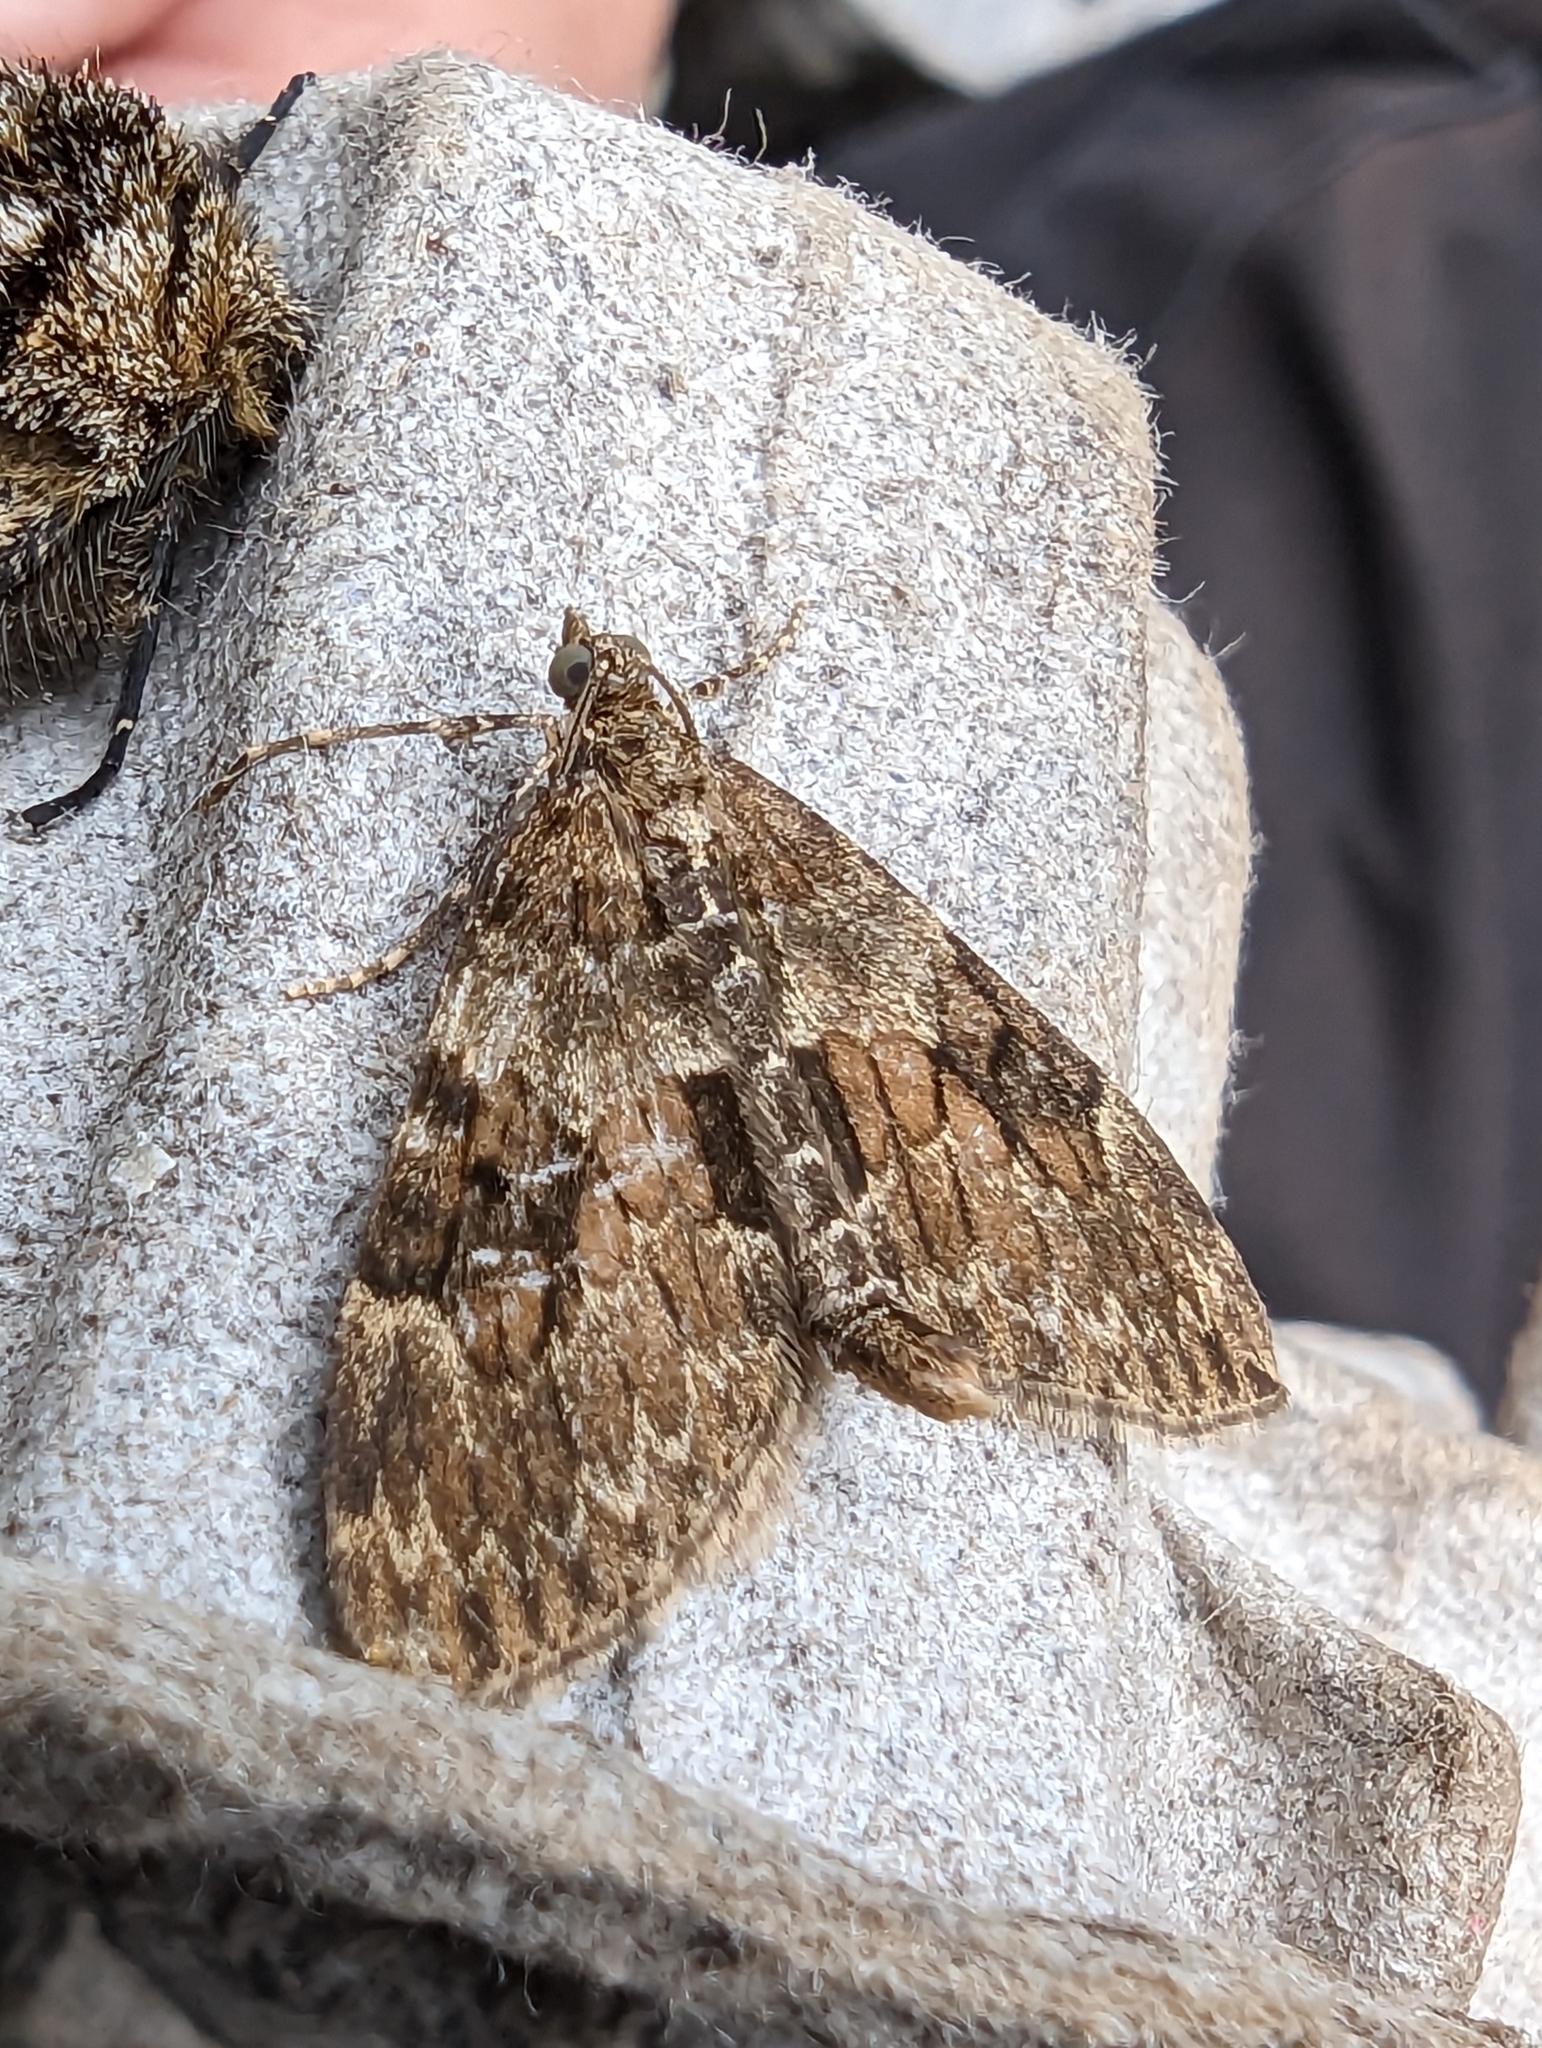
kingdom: Animalia
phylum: Arthropoda
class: Insecta
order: Lepidoptera
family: Geometridae
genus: Thera
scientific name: Thera britannica
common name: Spruce carpet
